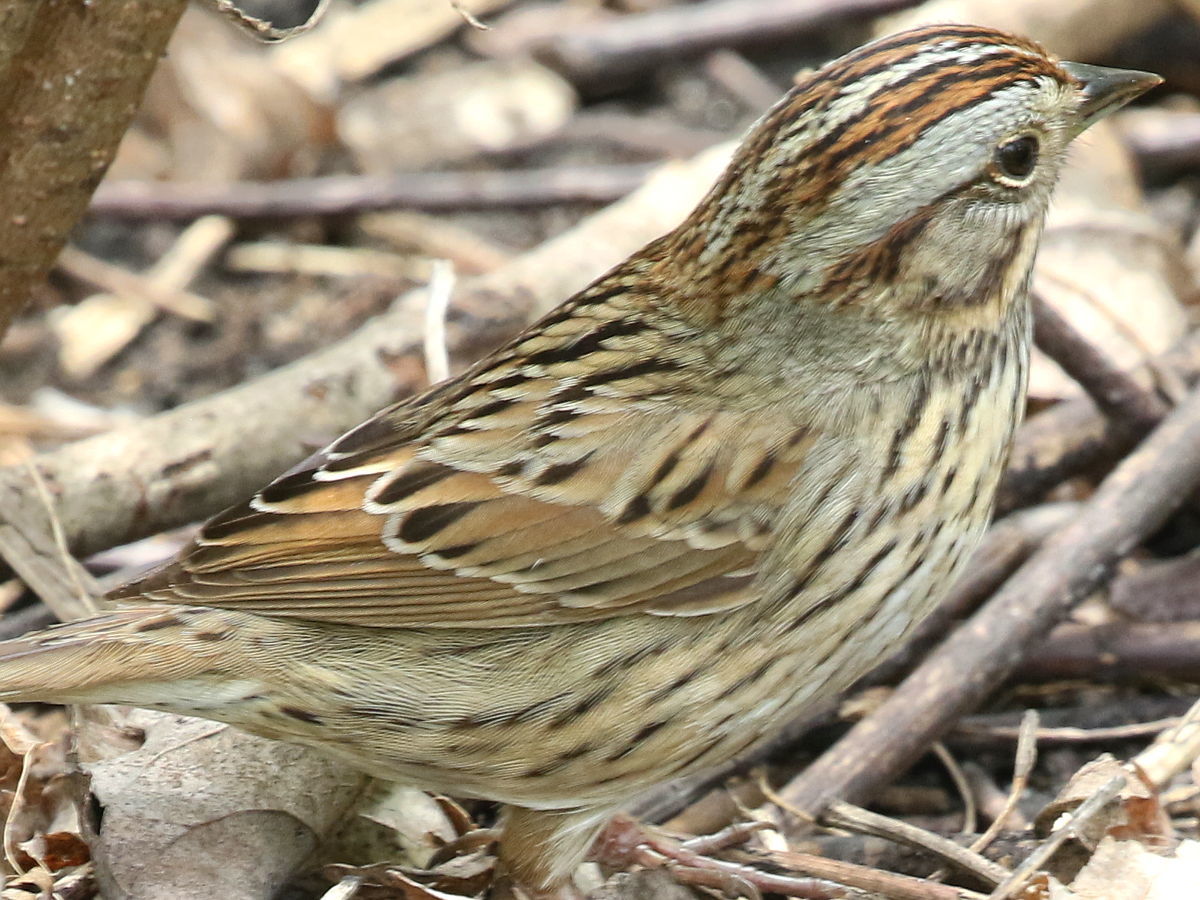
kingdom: Animalia
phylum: Chordata
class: Aves
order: Passeriformes
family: Passerellidae
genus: Melospiza
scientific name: Melospiza lincolnii
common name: Lincoln's sparrow
